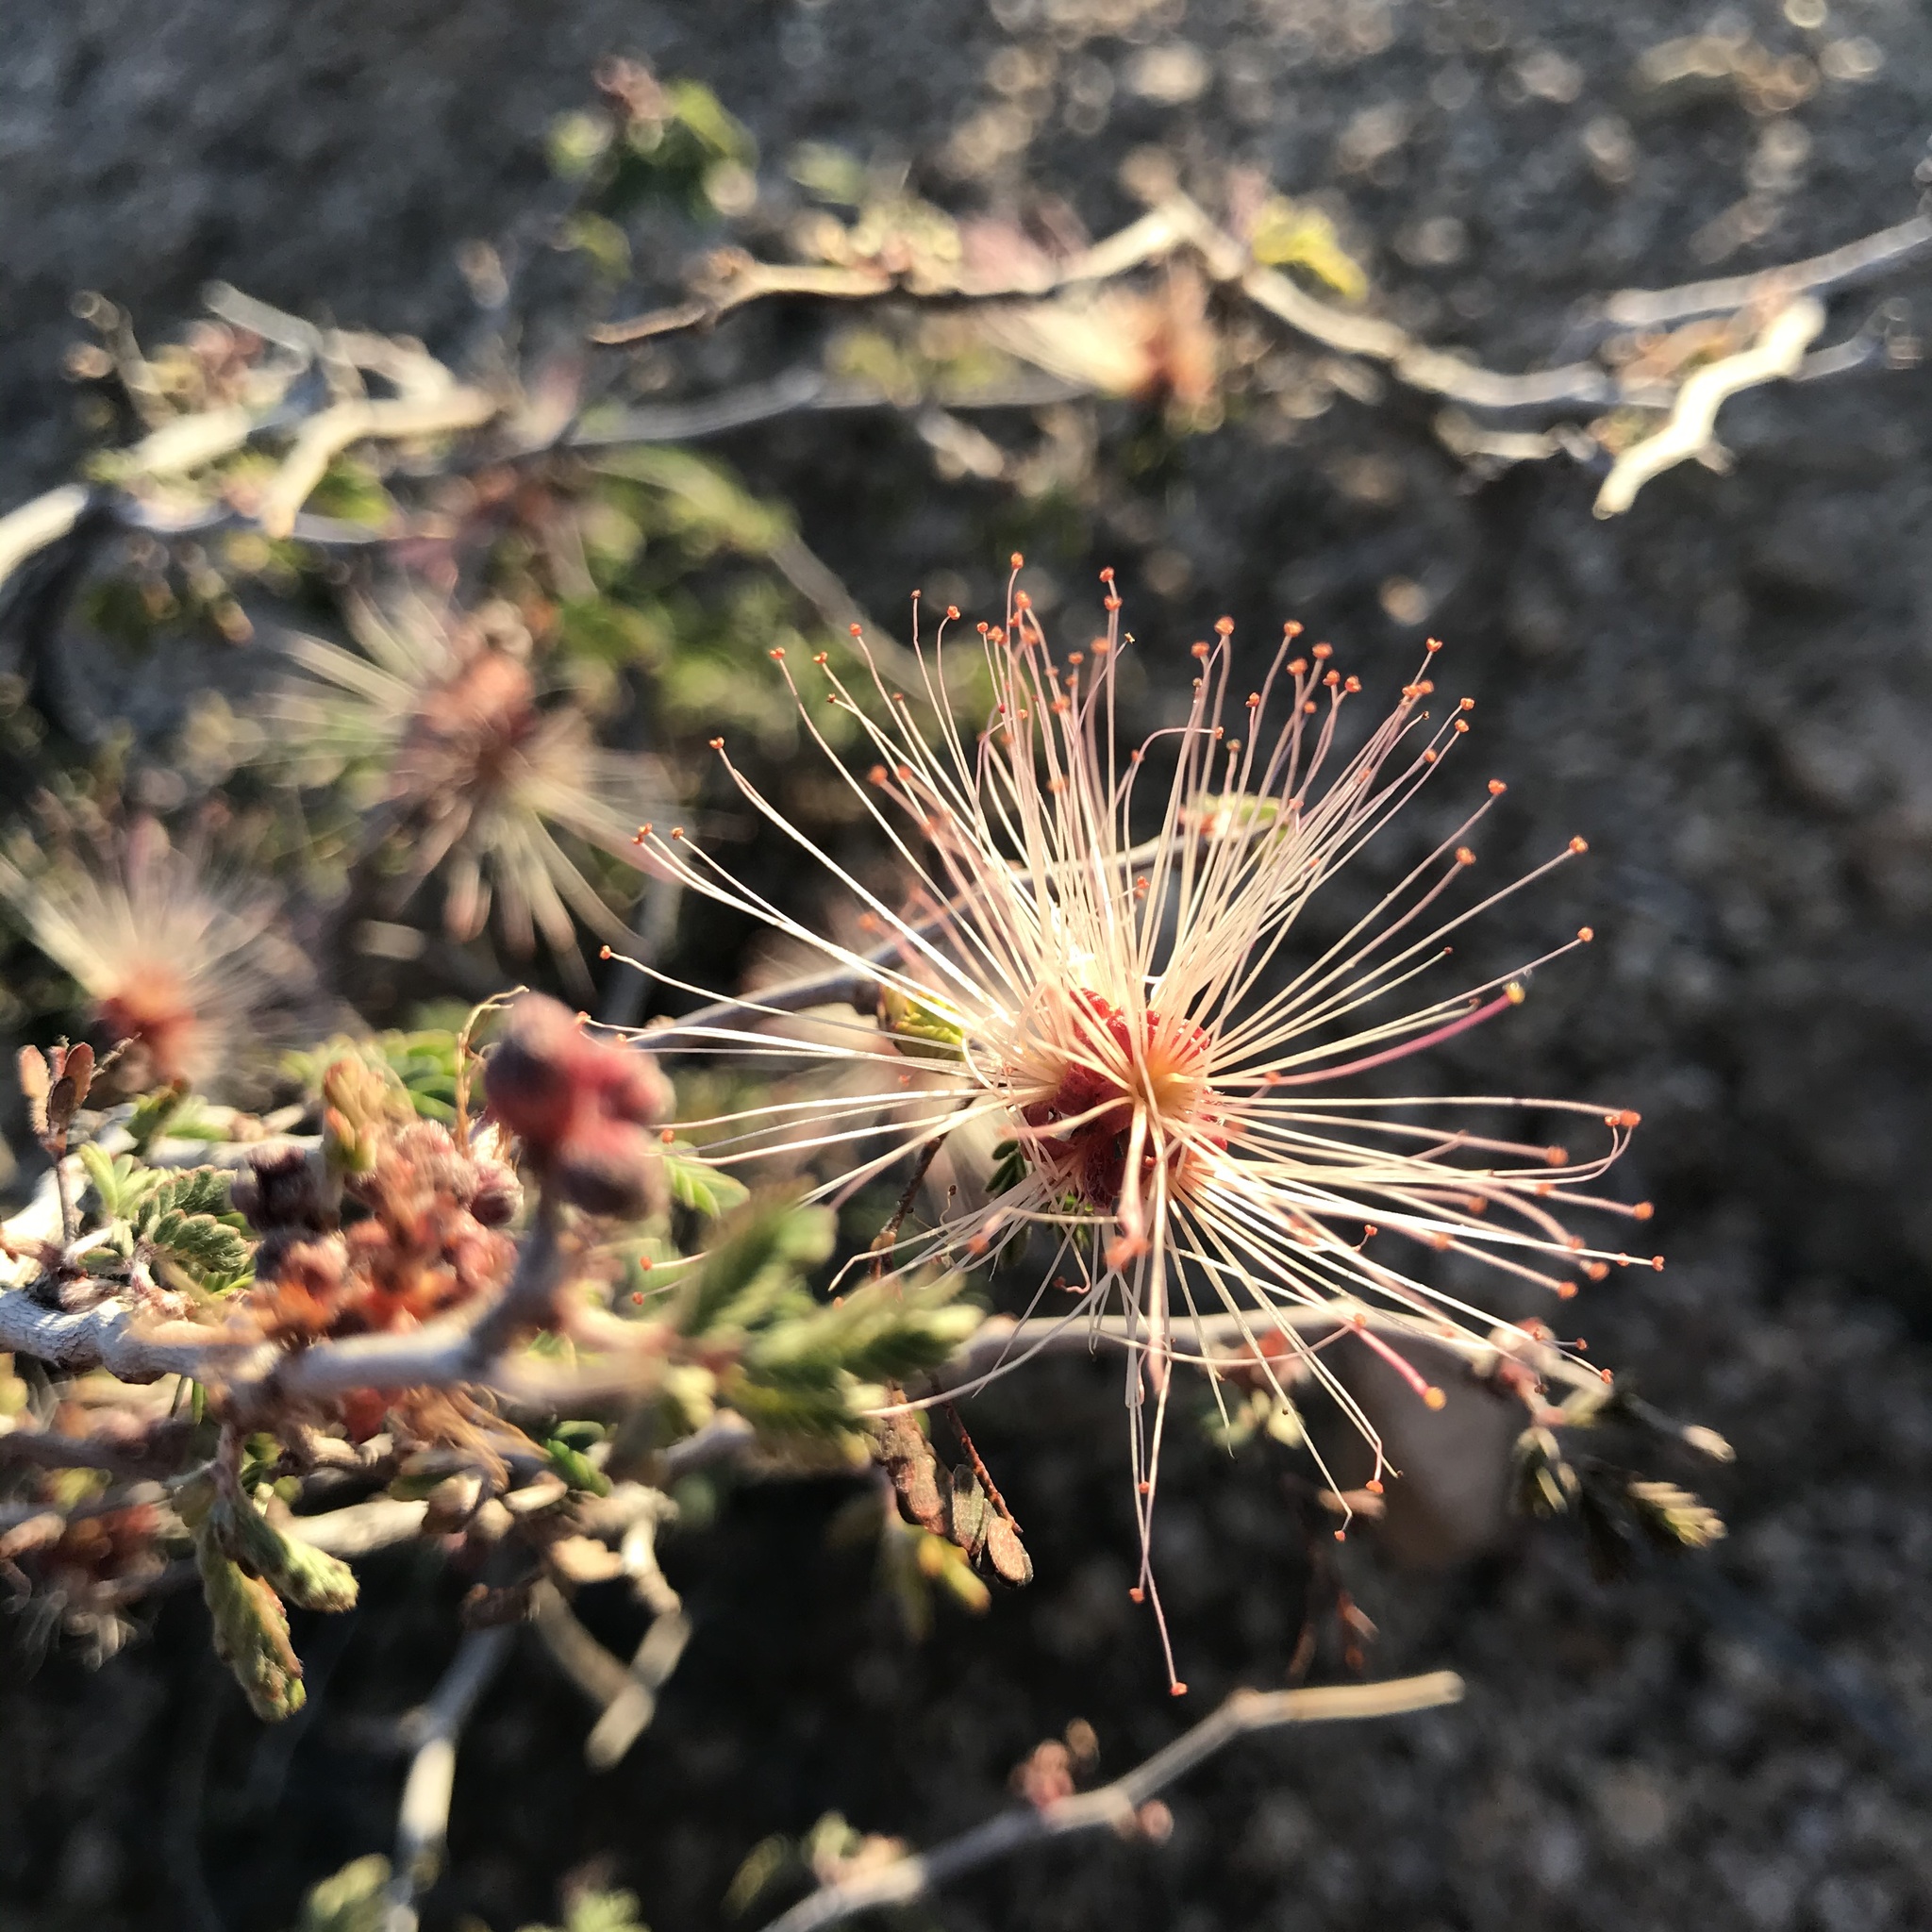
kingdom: Plantae
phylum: Tracheophyta
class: Magnoliopsida
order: Fabales
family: Fabaceae
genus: Calliandra
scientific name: Calliandra eriophylla
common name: Fairy-duster
